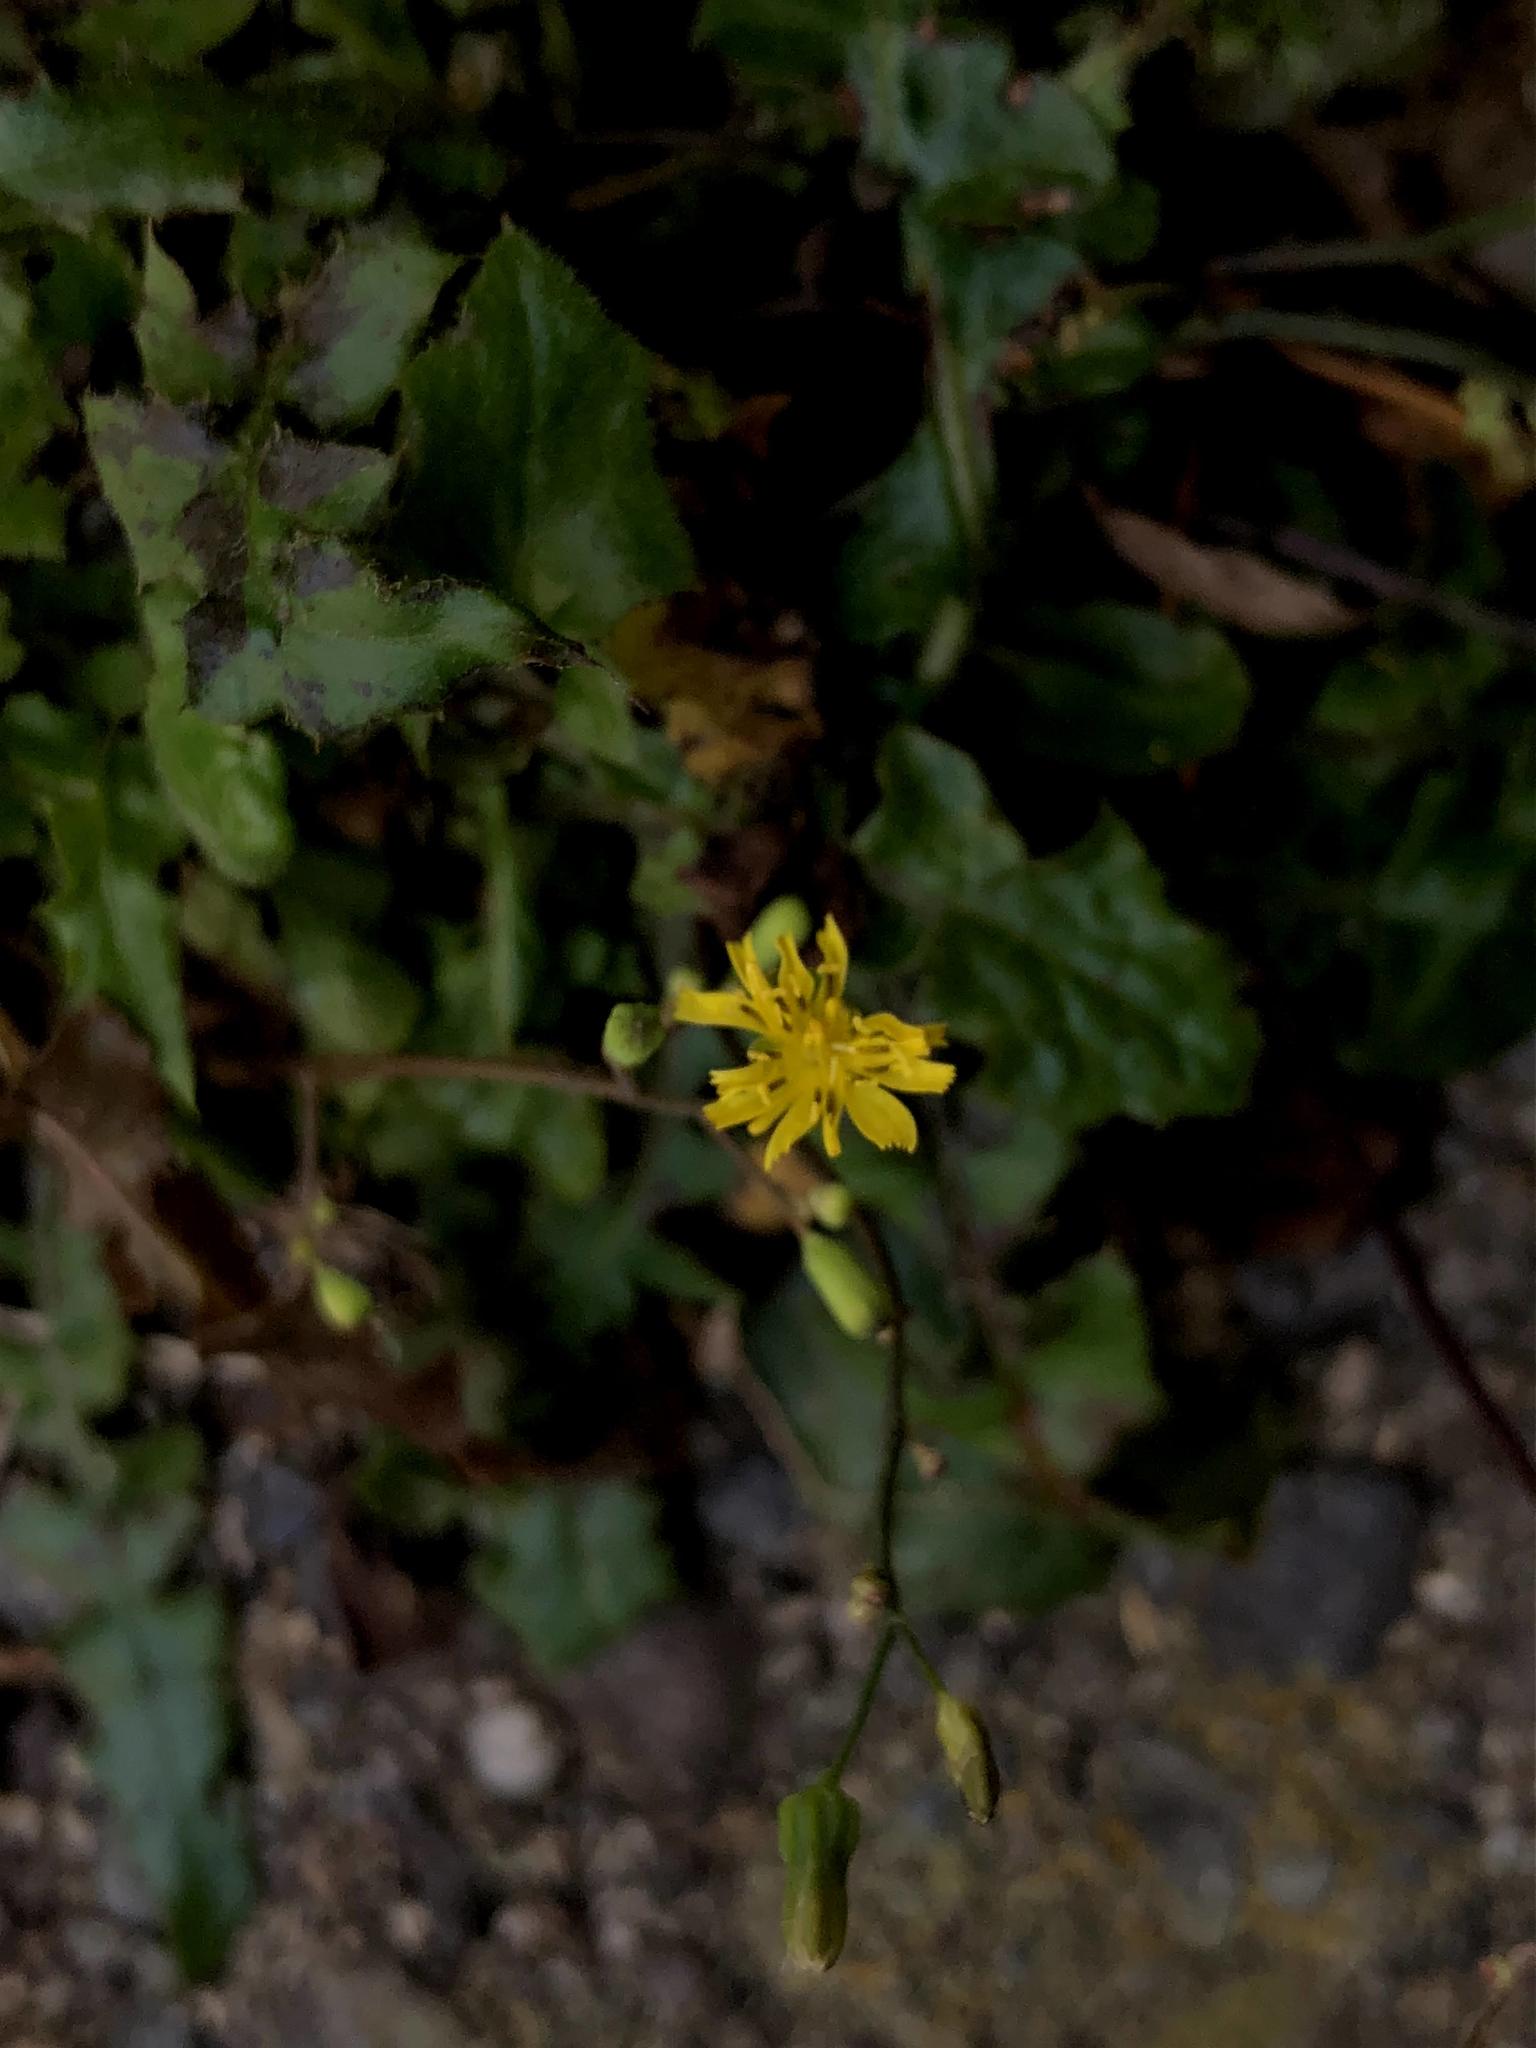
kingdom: Plantae
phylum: Tracheophyta
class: Magnoliopsida
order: Asterales
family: Asteraceae
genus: Youngia
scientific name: Youngia japonica
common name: Oriental false hawksbeard
